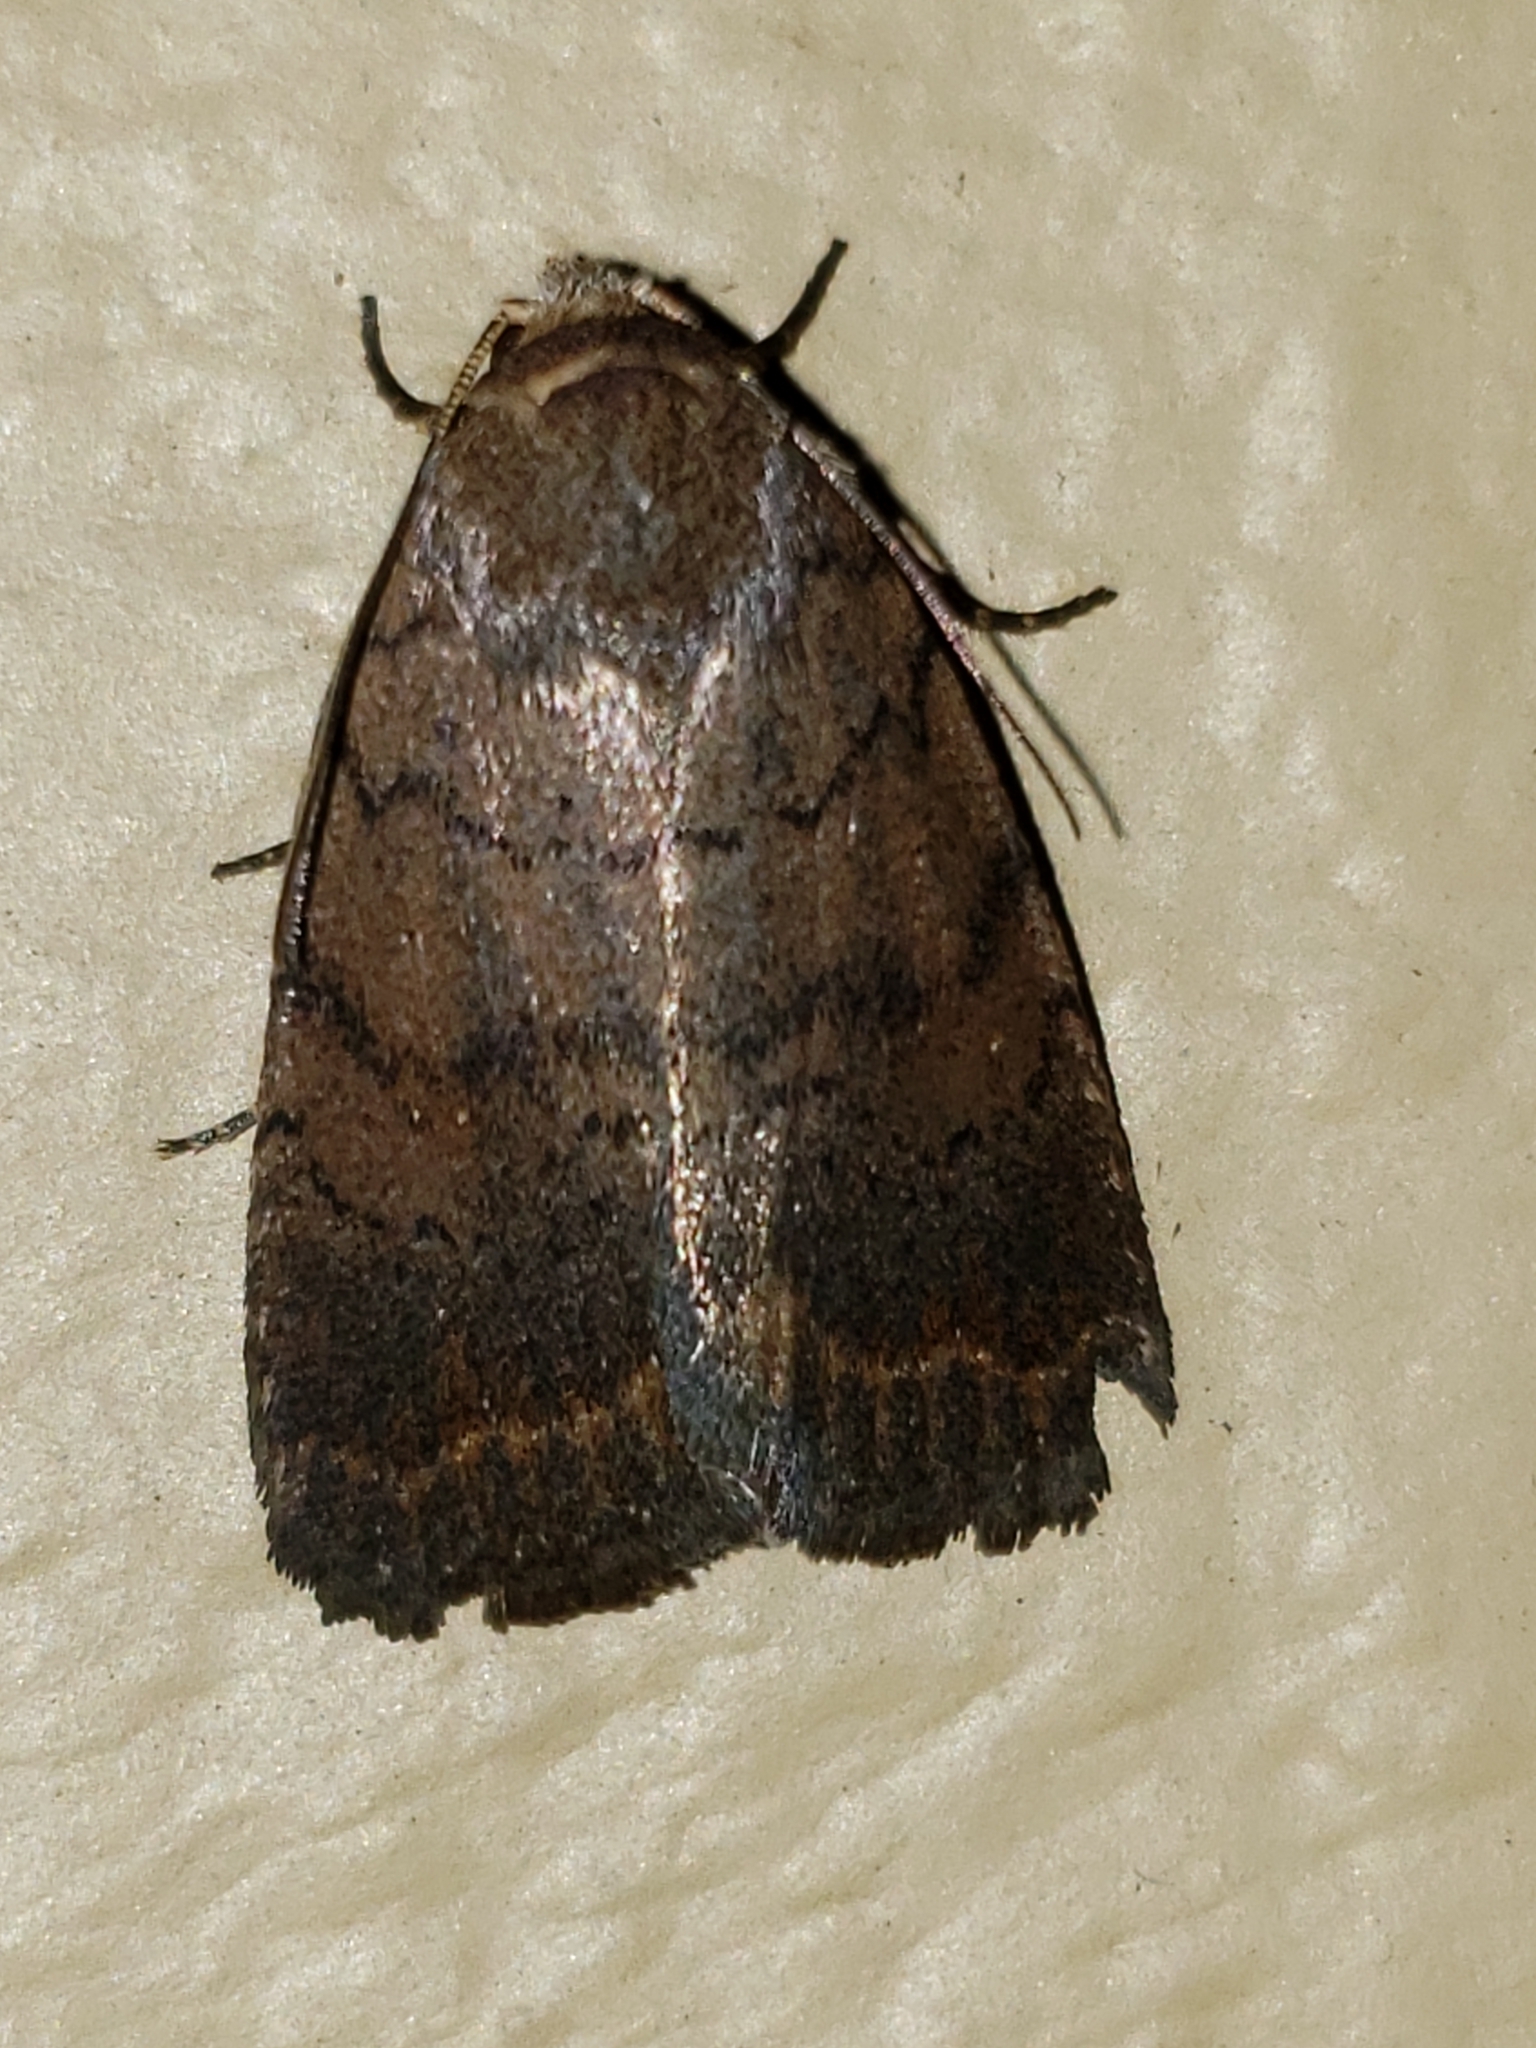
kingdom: Animalia
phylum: Arthropoda
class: Insecta
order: Lepidoptera
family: Noctuidae
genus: Athetis
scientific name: Athetis tarda
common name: Slowpoke moth
